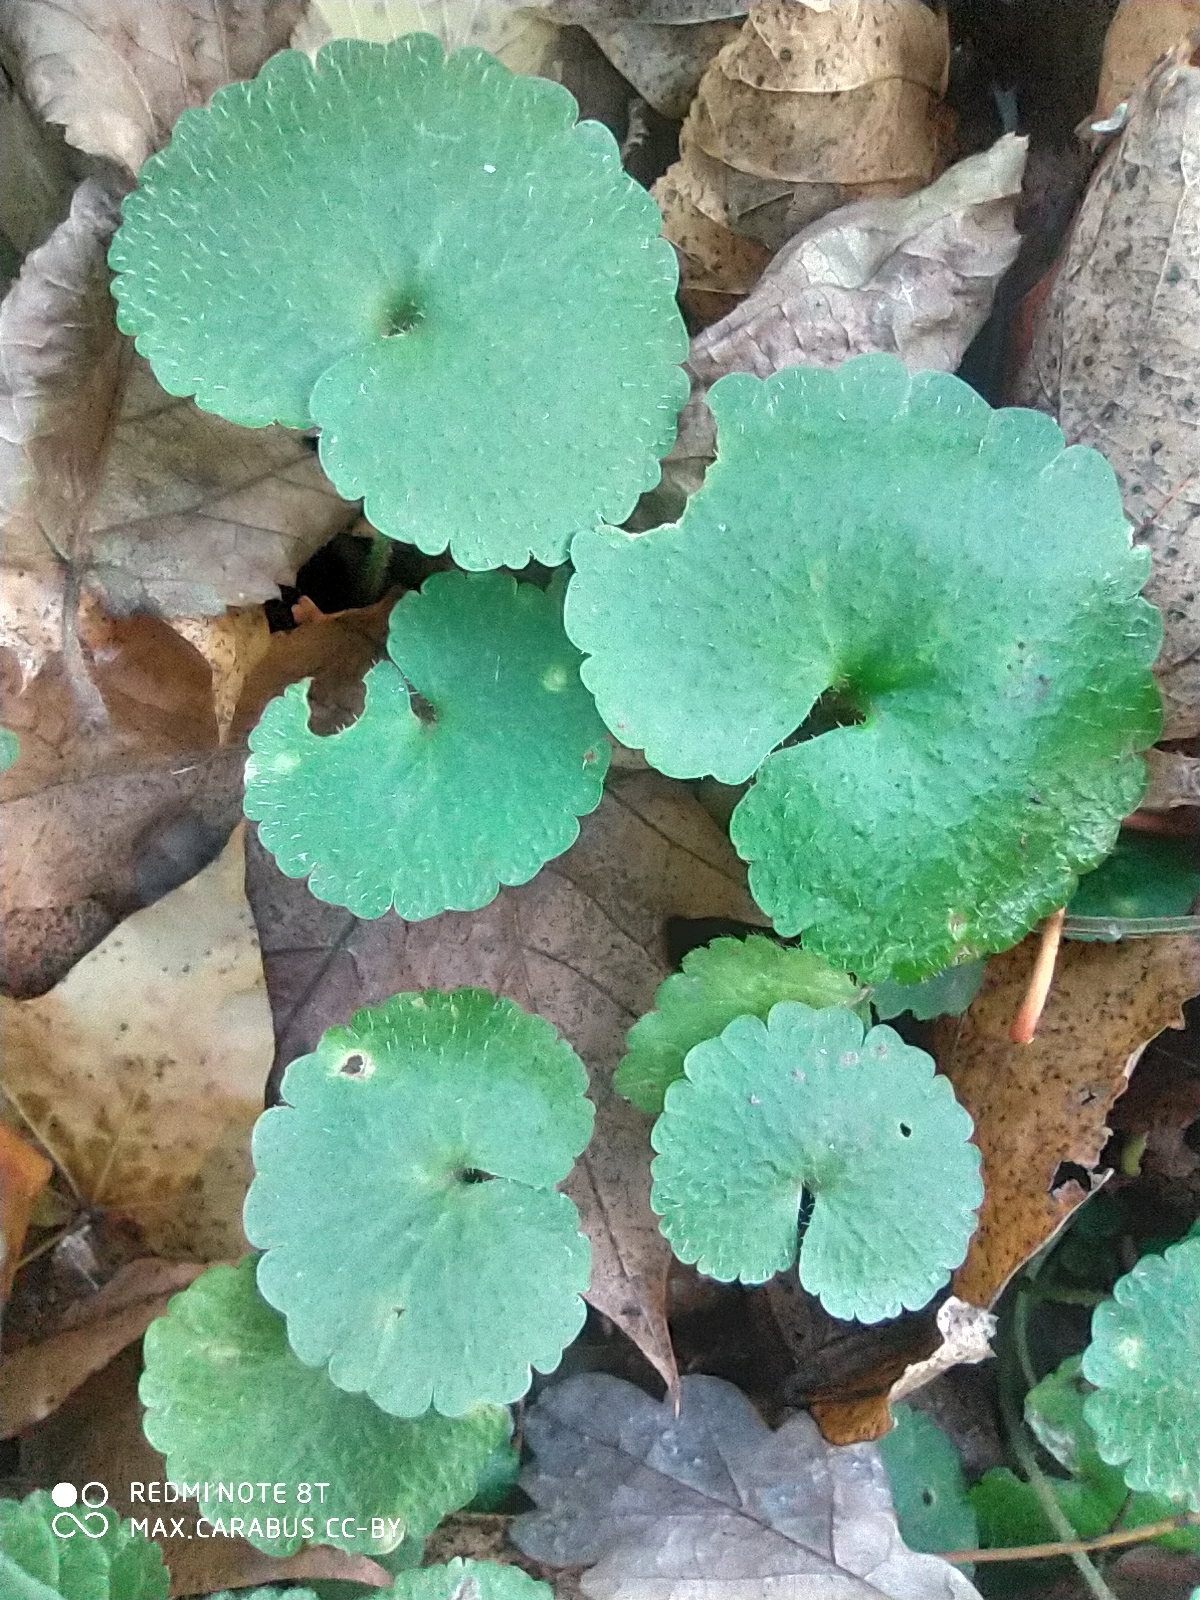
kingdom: Plantae
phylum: Tracheophyta
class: Magnoliopsida
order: Saxifragales
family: Saxifragaceae
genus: Chrysosplenium
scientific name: Chrysosplenium alternifolium
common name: Alternate-leaved golden-saxifrage
